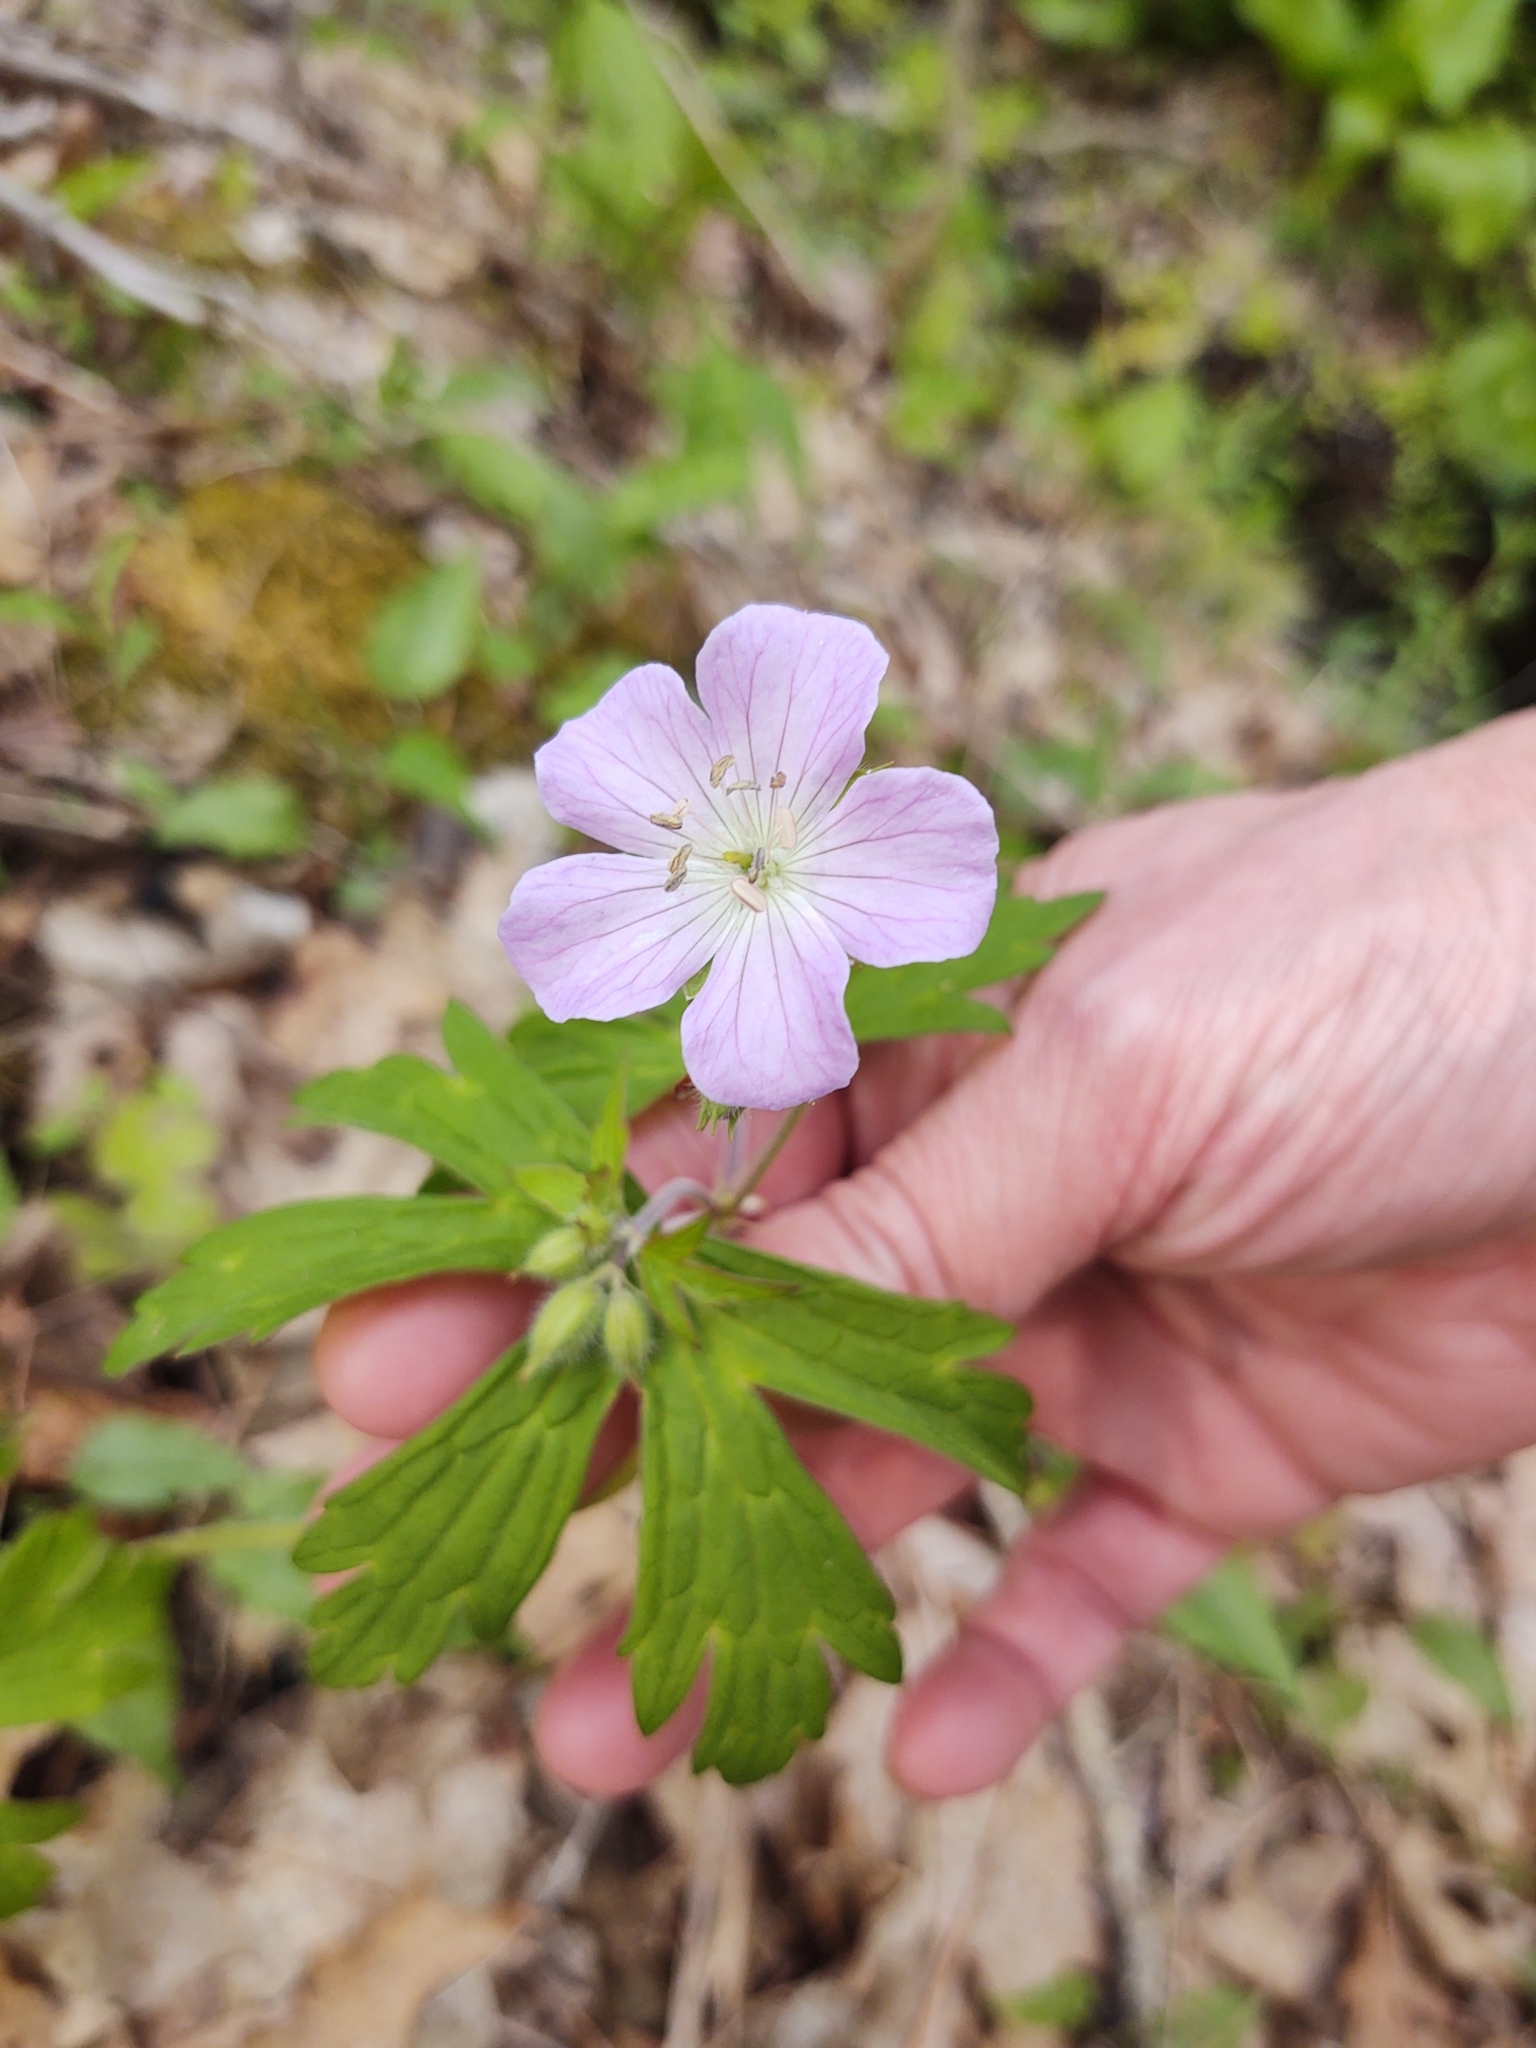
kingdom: Plantae
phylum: Tracheophyta
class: Magnoliopsida
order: Geraniales
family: Geraniaceae
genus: Geranium
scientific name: Geranium maculatum
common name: Spotted geranium
